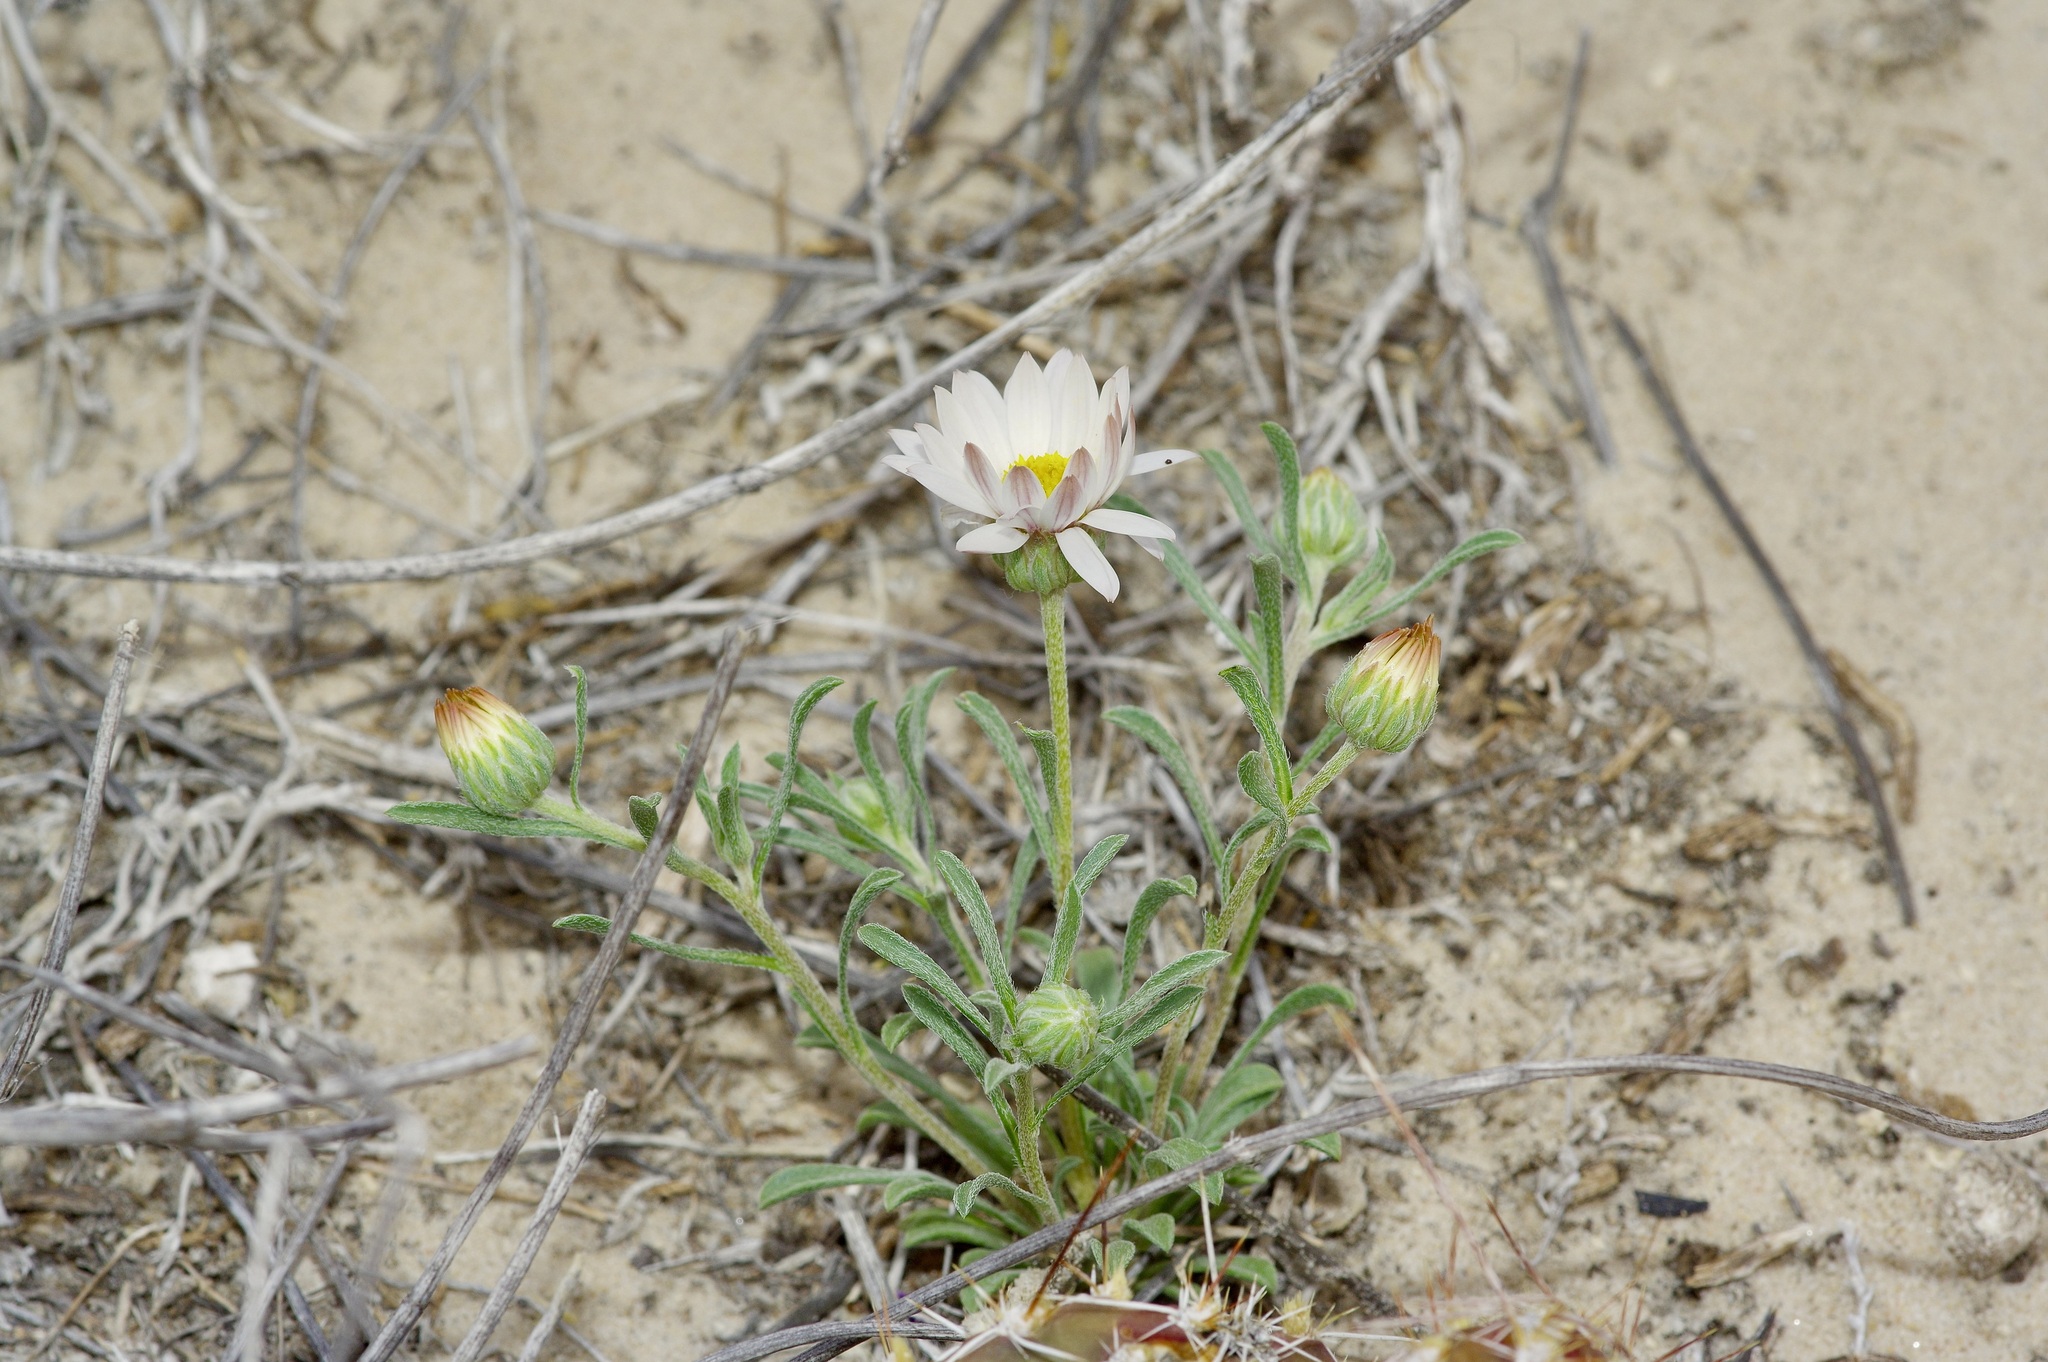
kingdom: Plantae
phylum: Tracheophyta
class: Magnoliopsida
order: Asterales
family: Asteraceae
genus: Townsendia
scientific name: Townsendia annua
